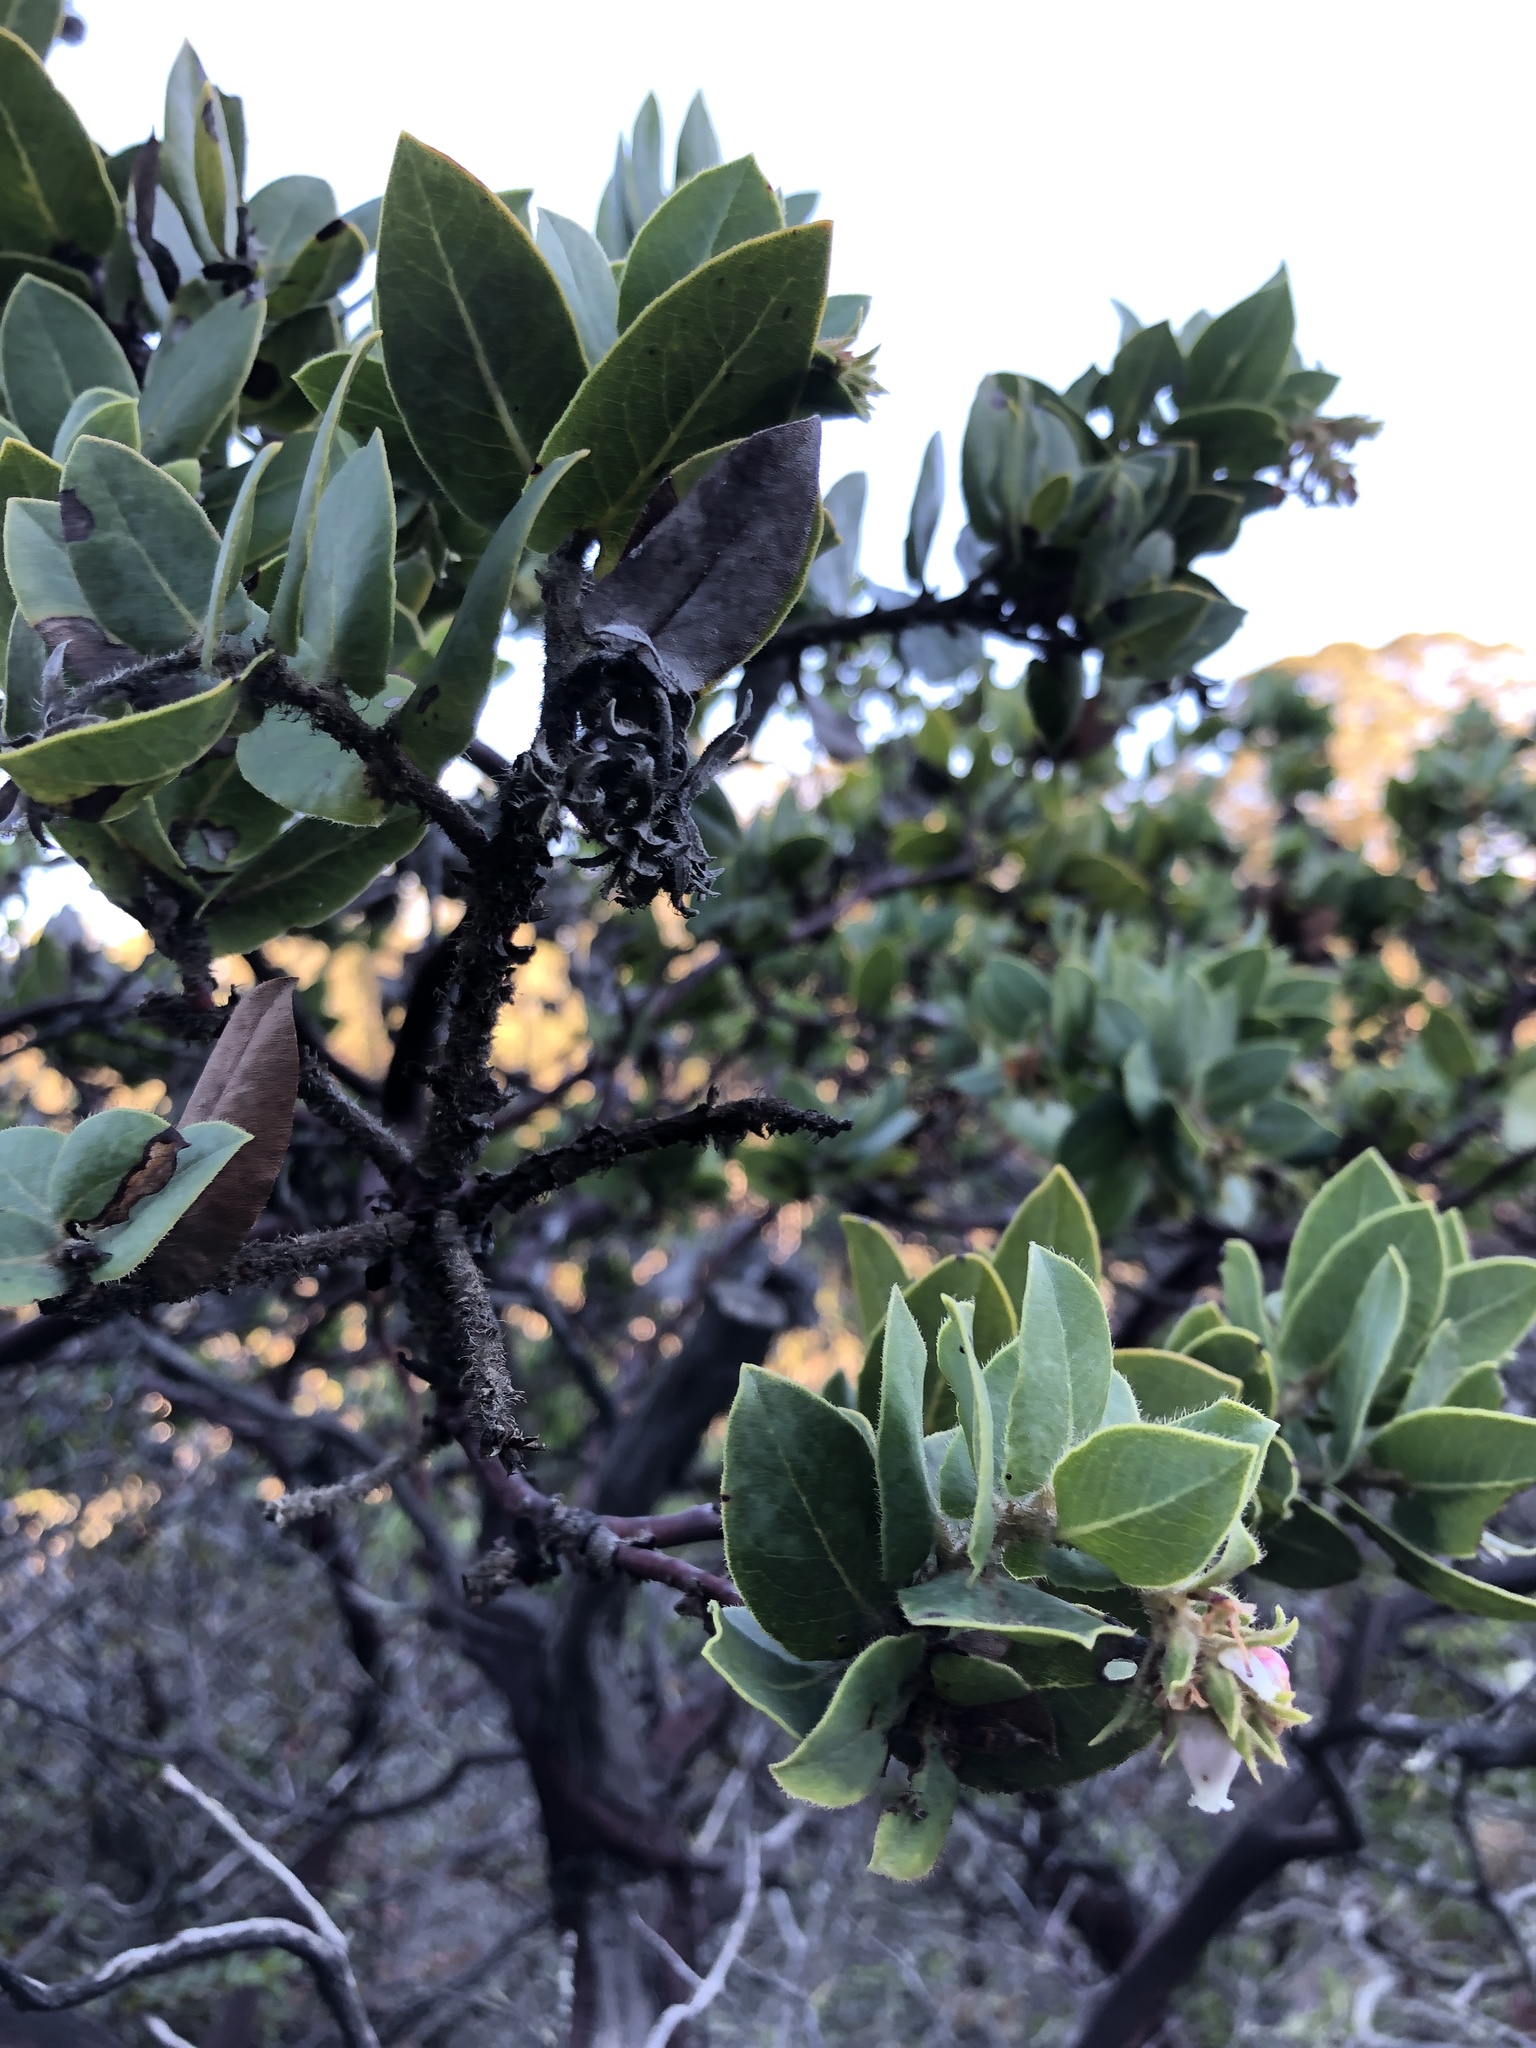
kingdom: Plantae
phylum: Tracheophyta
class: Magnoliopsida
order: Ericales
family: Ericaceae
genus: Arctostaphylos
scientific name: Arctostaphylos montaraensis
